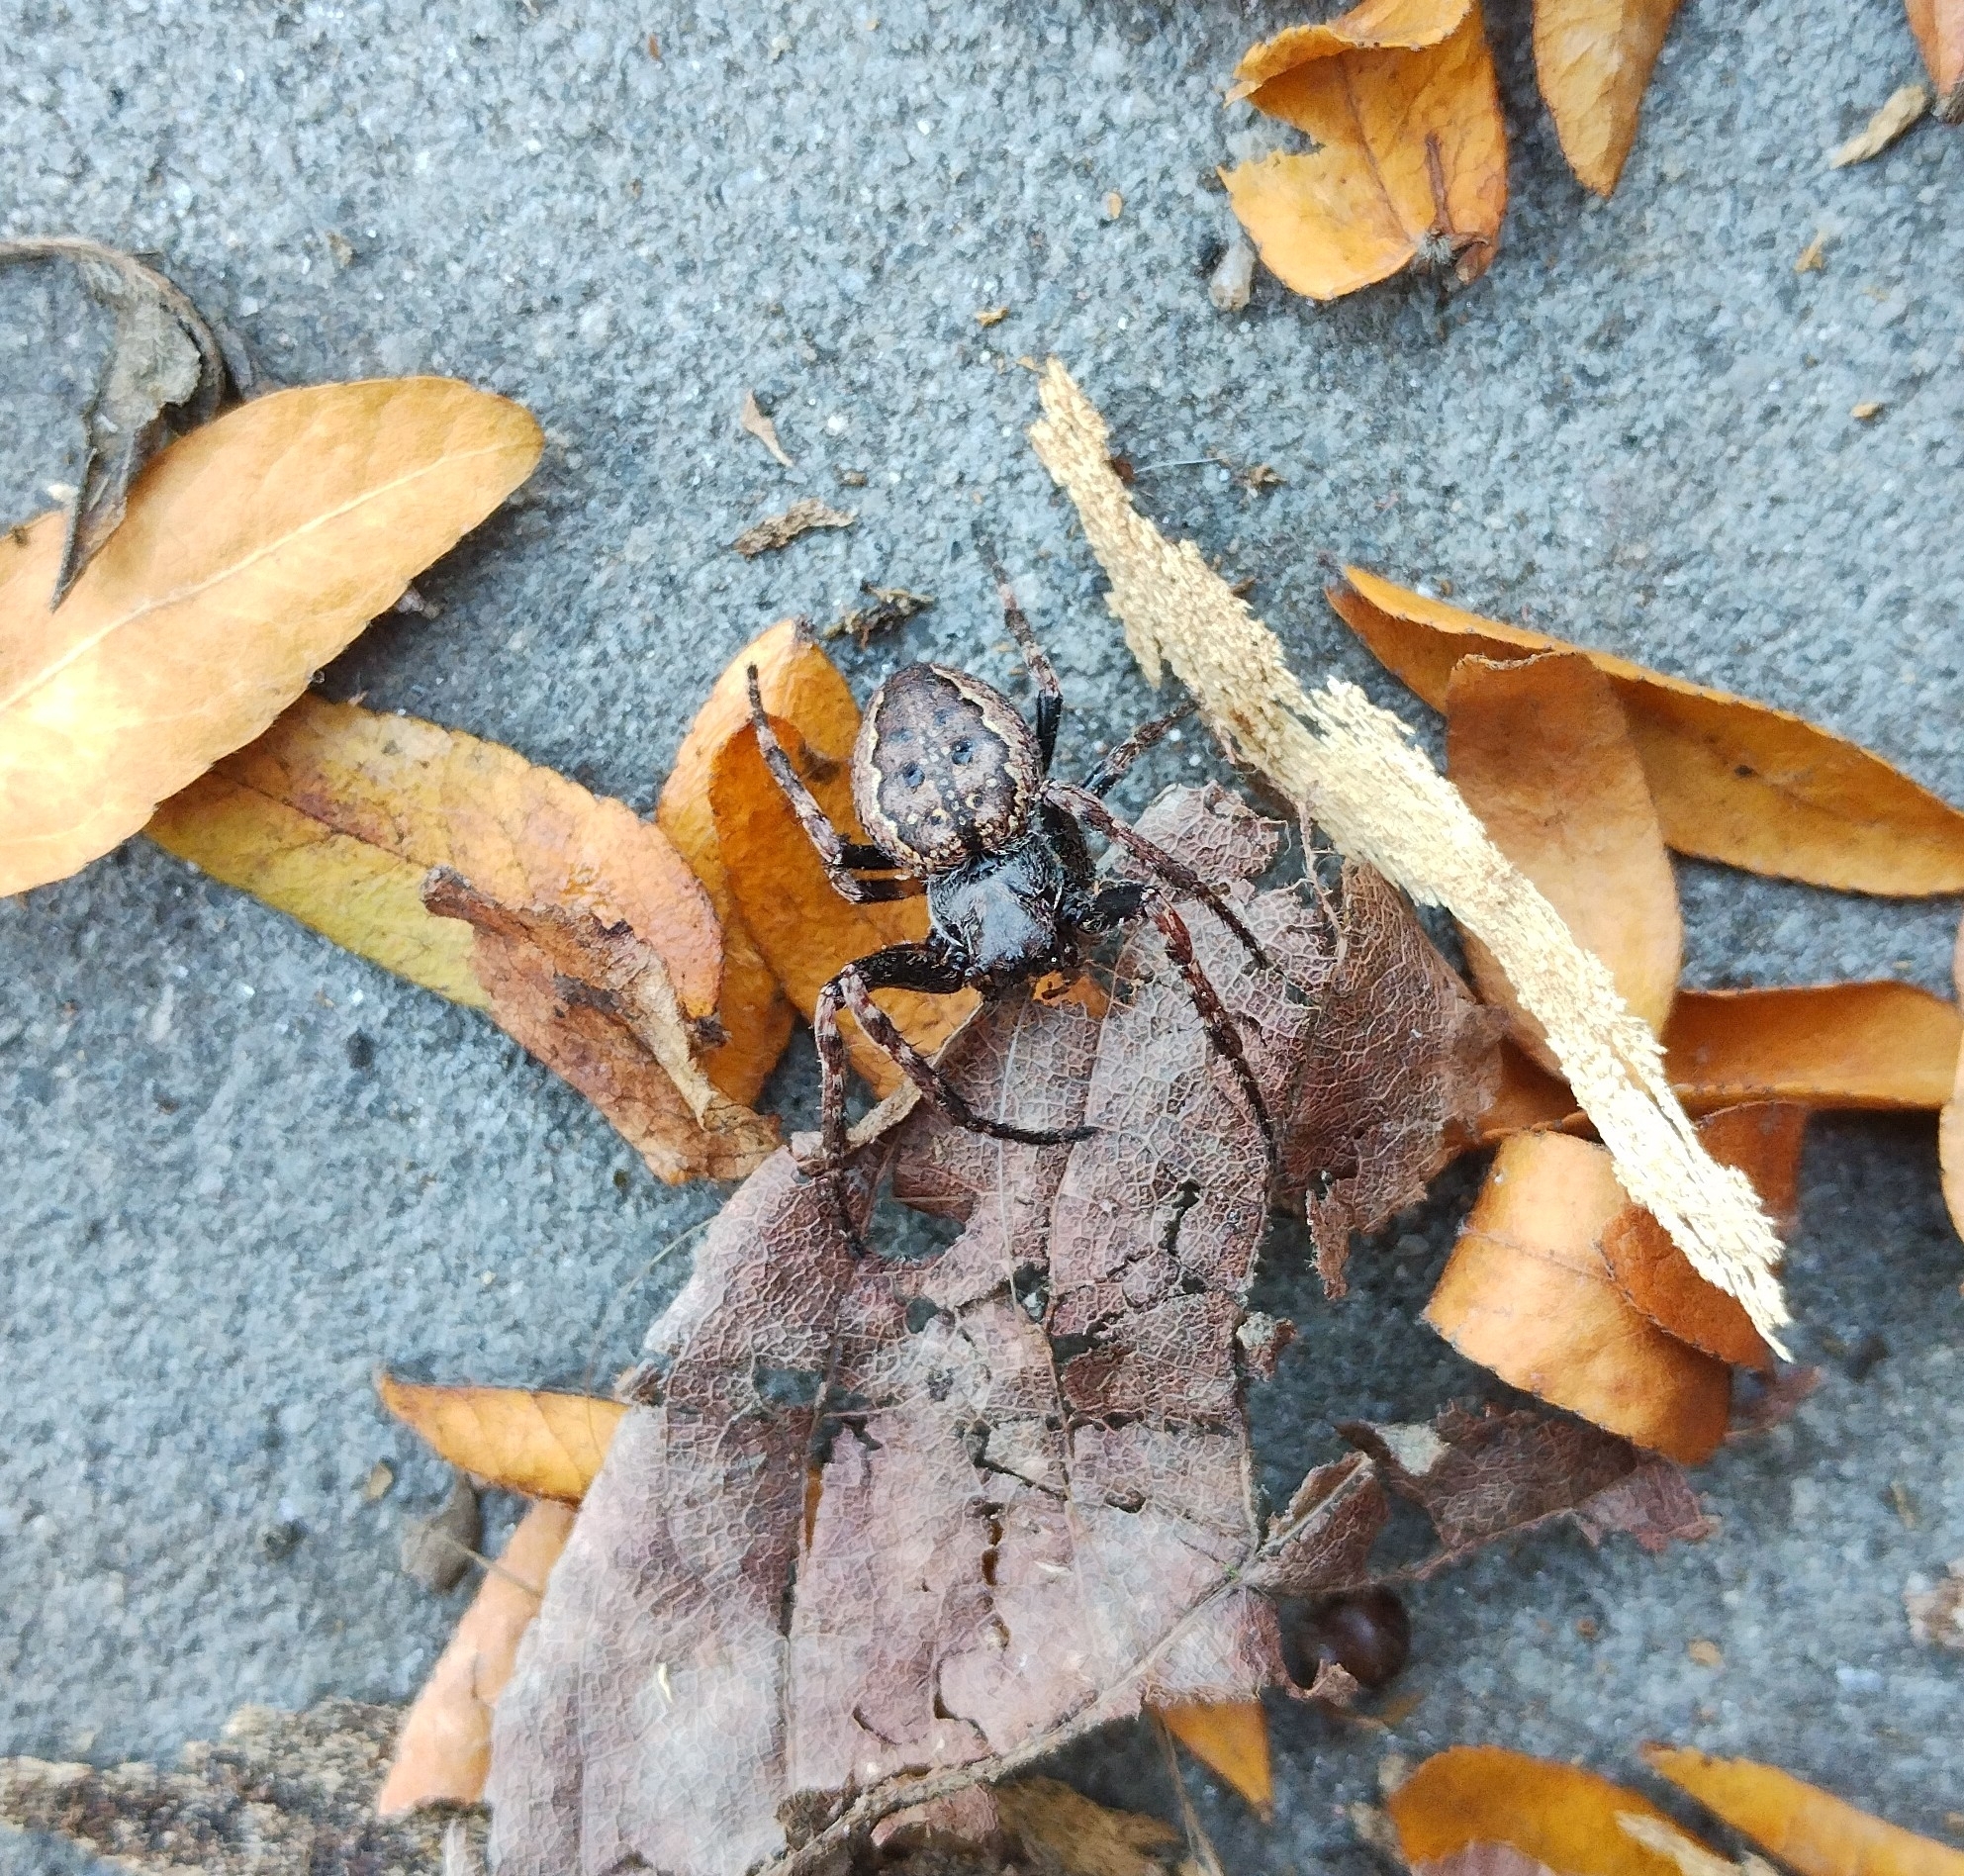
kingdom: Animalia
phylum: Arthropoda
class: Arachnida
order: Araneae
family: Araneidae
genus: Nuctenea
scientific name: Nuctenea umbratica
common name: Toad spider
